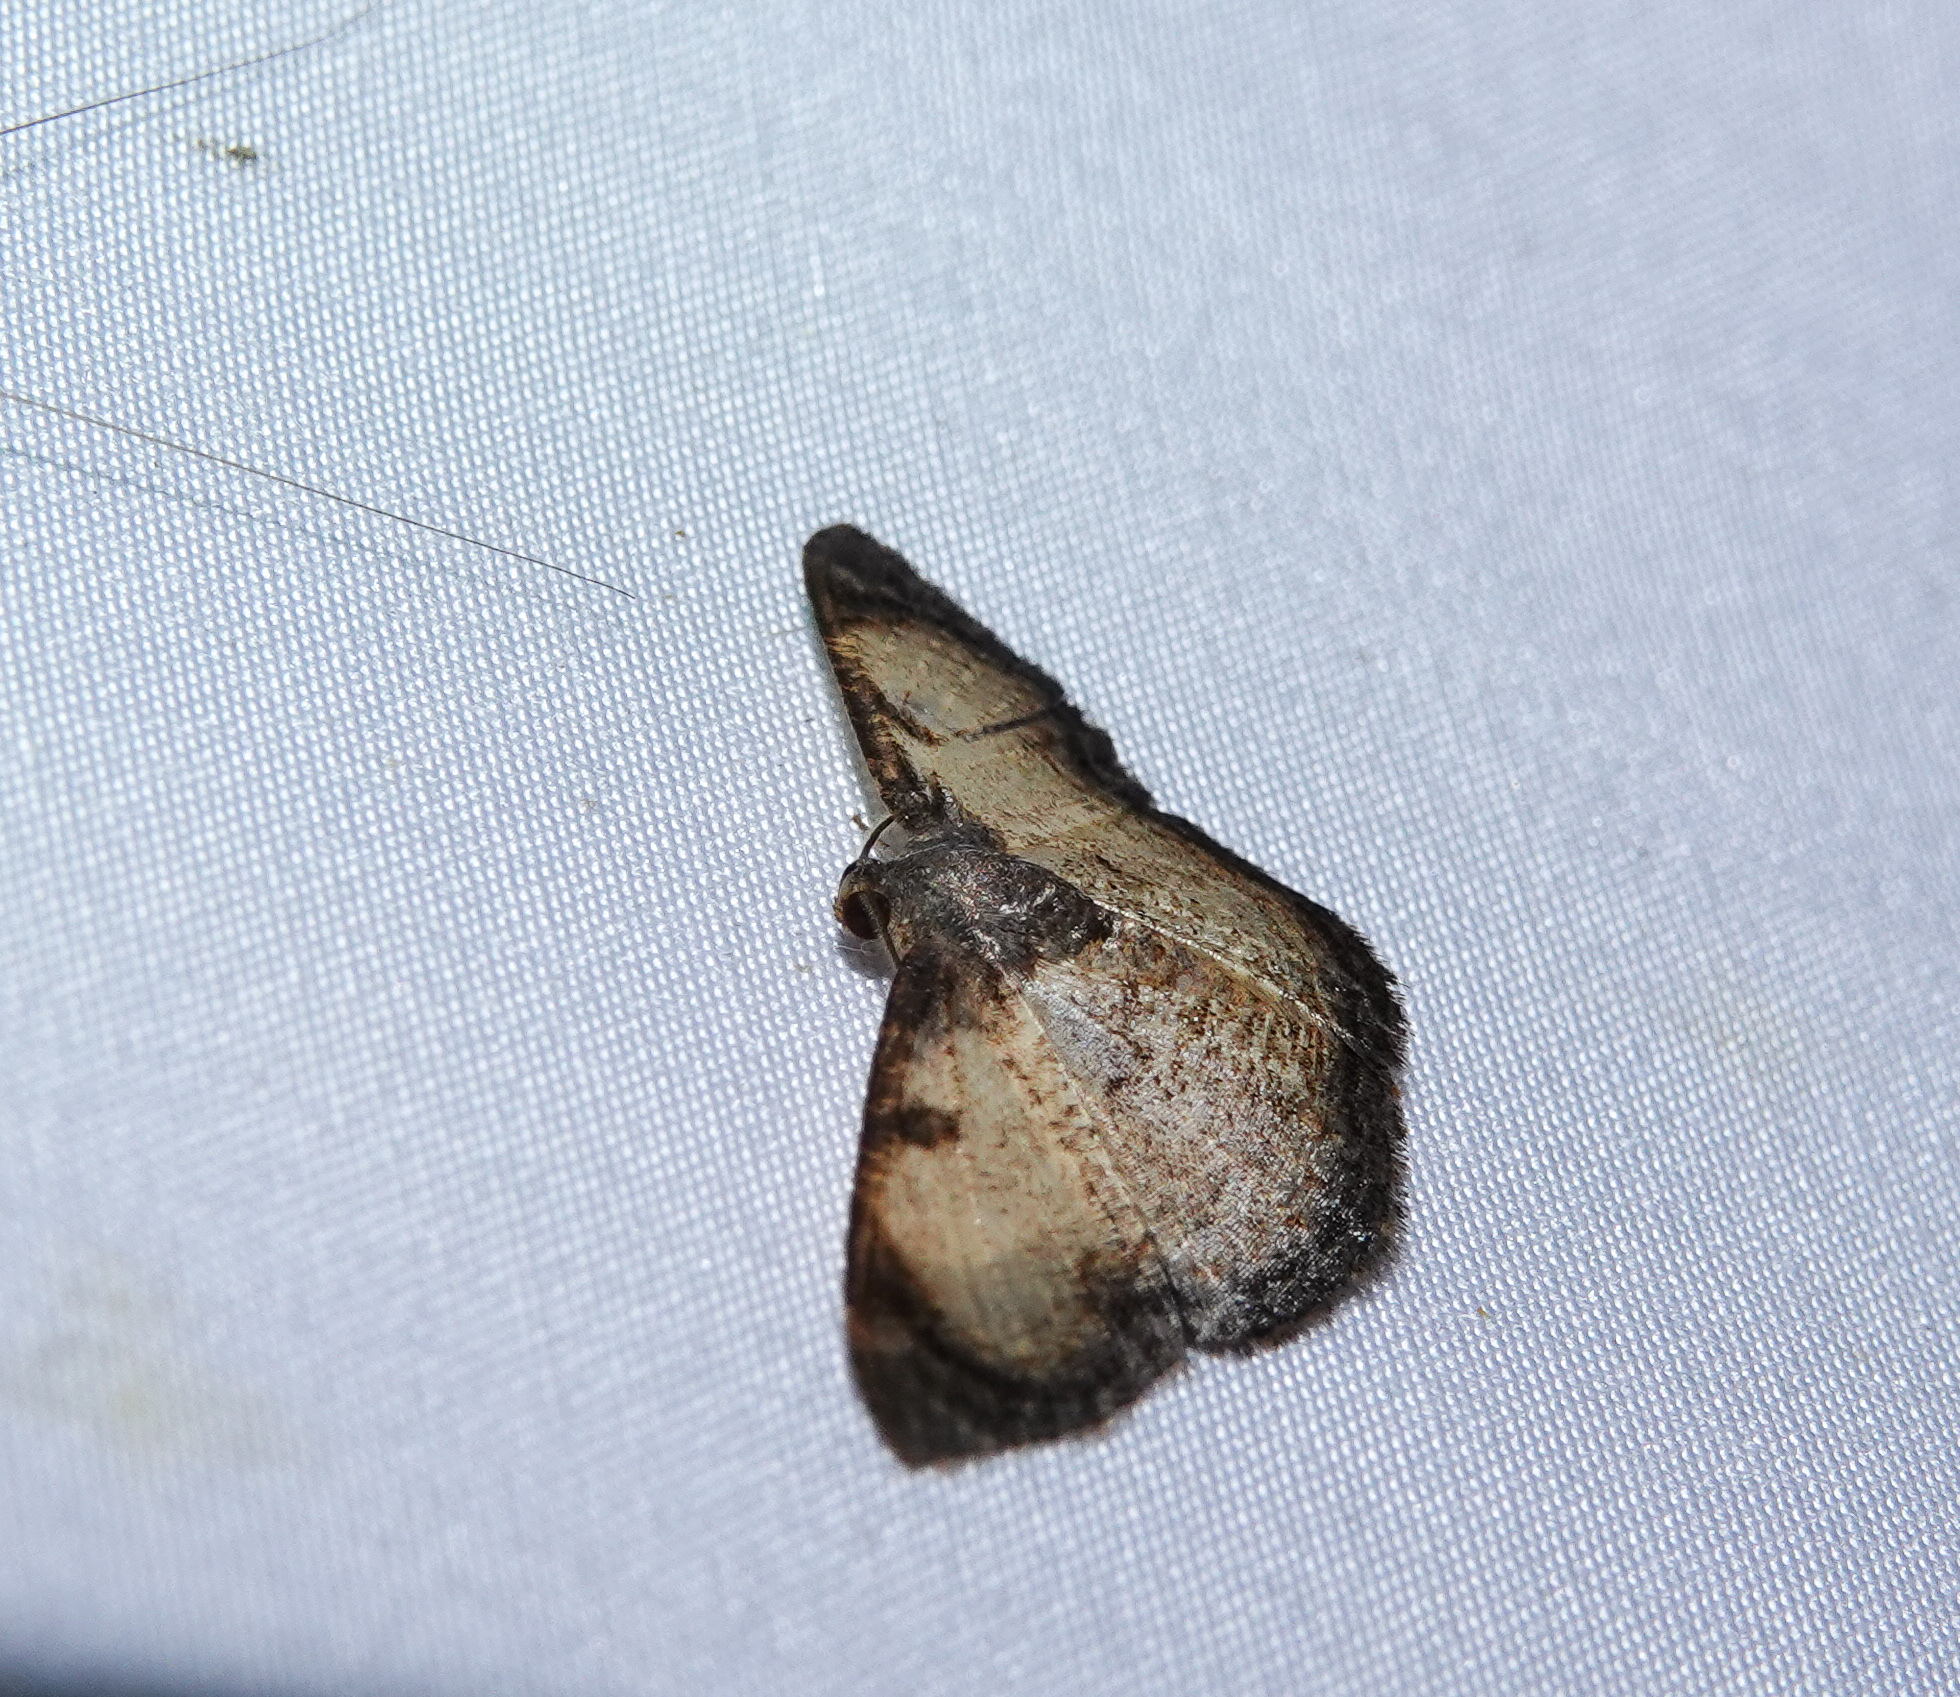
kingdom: Animalia
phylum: Arthropoda
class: Insecta
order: Lepidoptera
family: Geometridae
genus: Hydatocapnia
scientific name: Hydatocapnia gemina
